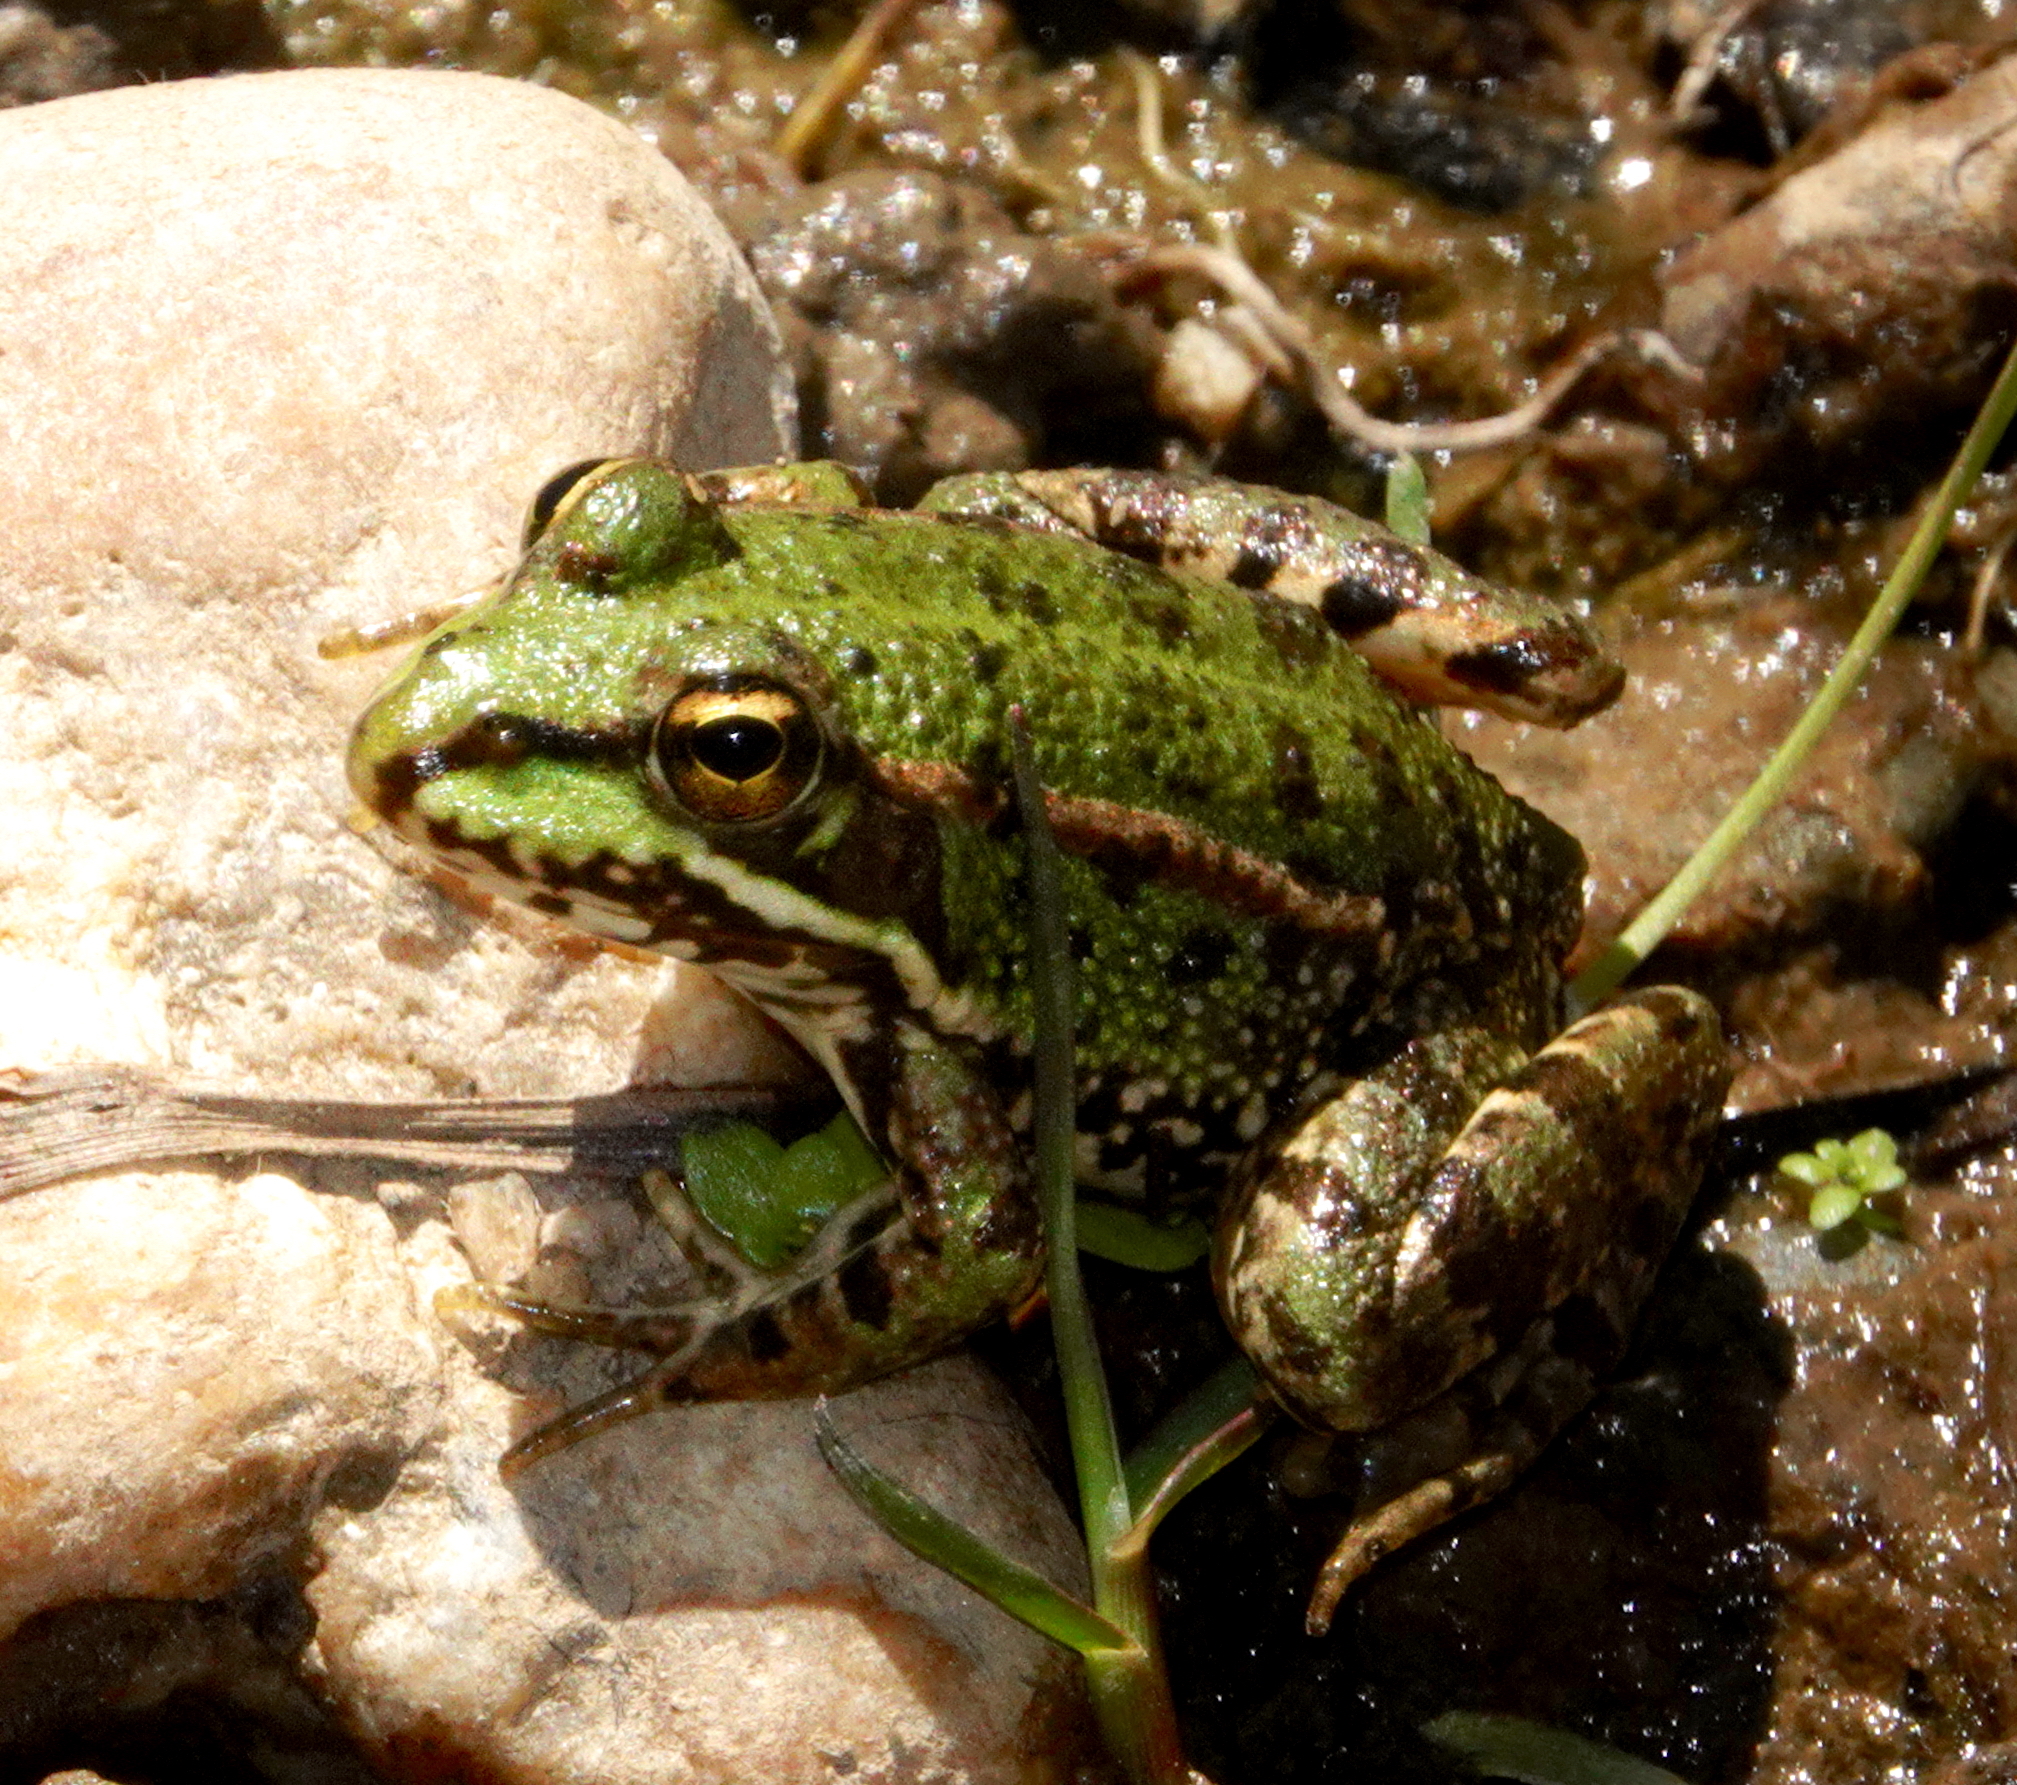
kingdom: Animalia
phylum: Chordata
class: Amphibia
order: Anura
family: Ranidae
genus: Pelophylax
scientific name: Pelophylax perezi
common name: Perez's frog
